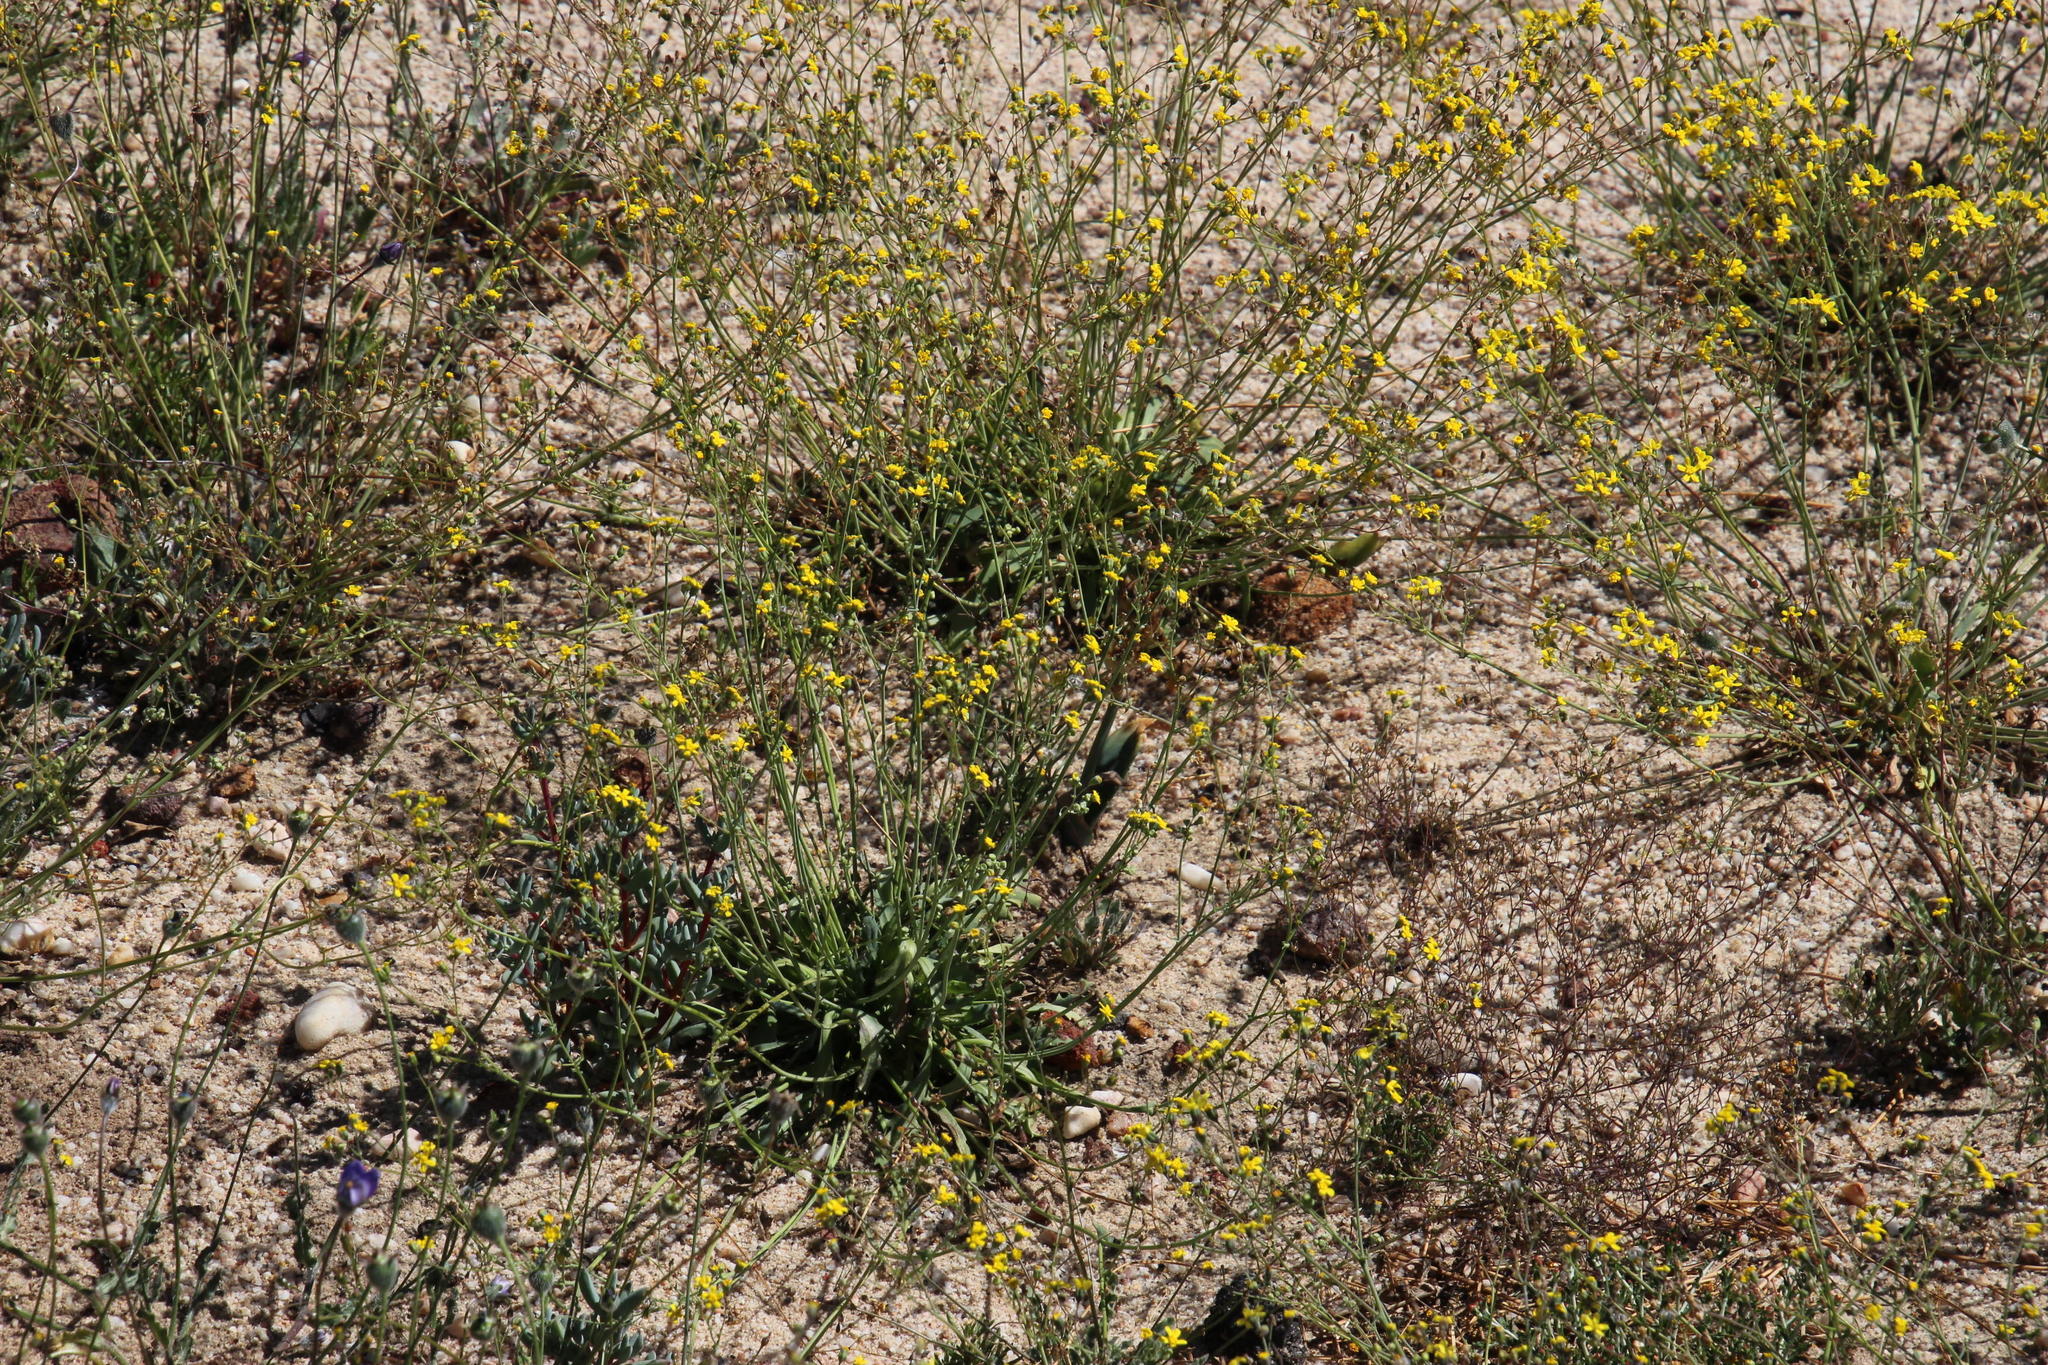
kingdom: Plantae
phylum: Tracheophyta
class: Magnoliopsida
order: Asterales
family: Asteraceae
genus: Gymnodiscus
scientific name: Gymnodiscus capillaris
